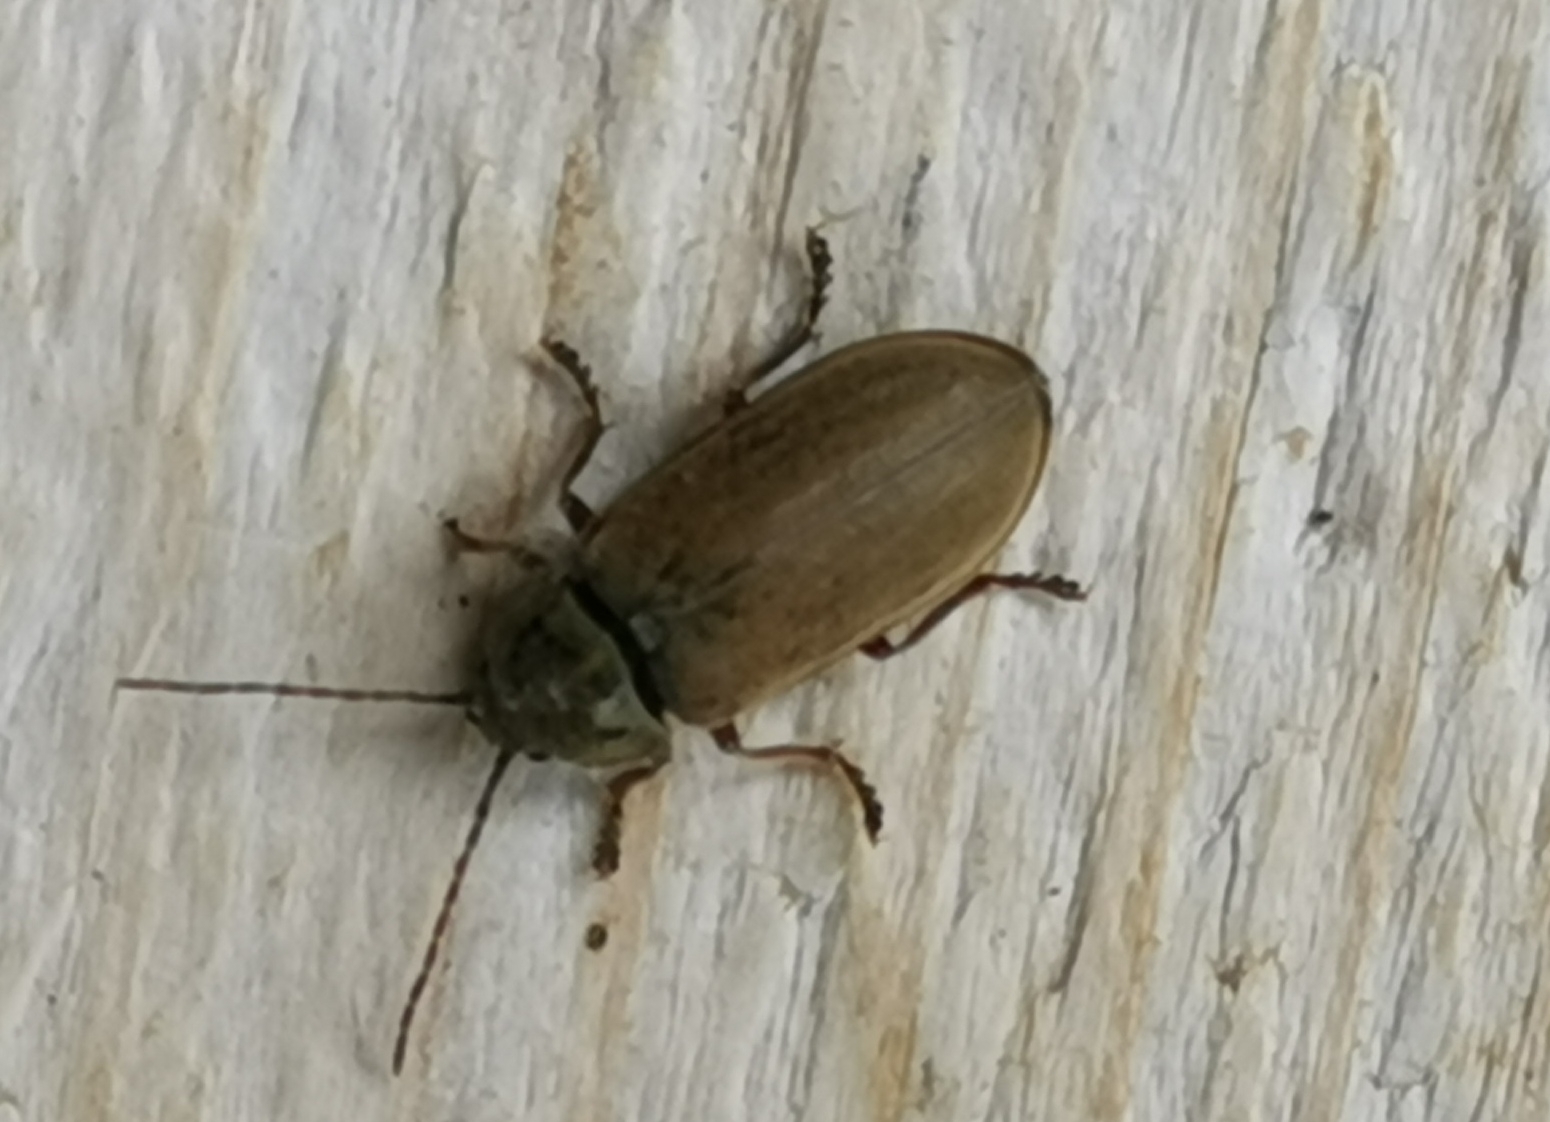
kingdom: Animalia
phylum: Arthropoda
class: Insecta
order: Coleoptera
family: Dascillidae
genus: Dascillus
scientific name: Dascillus cervinus
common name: Orchid beetle
